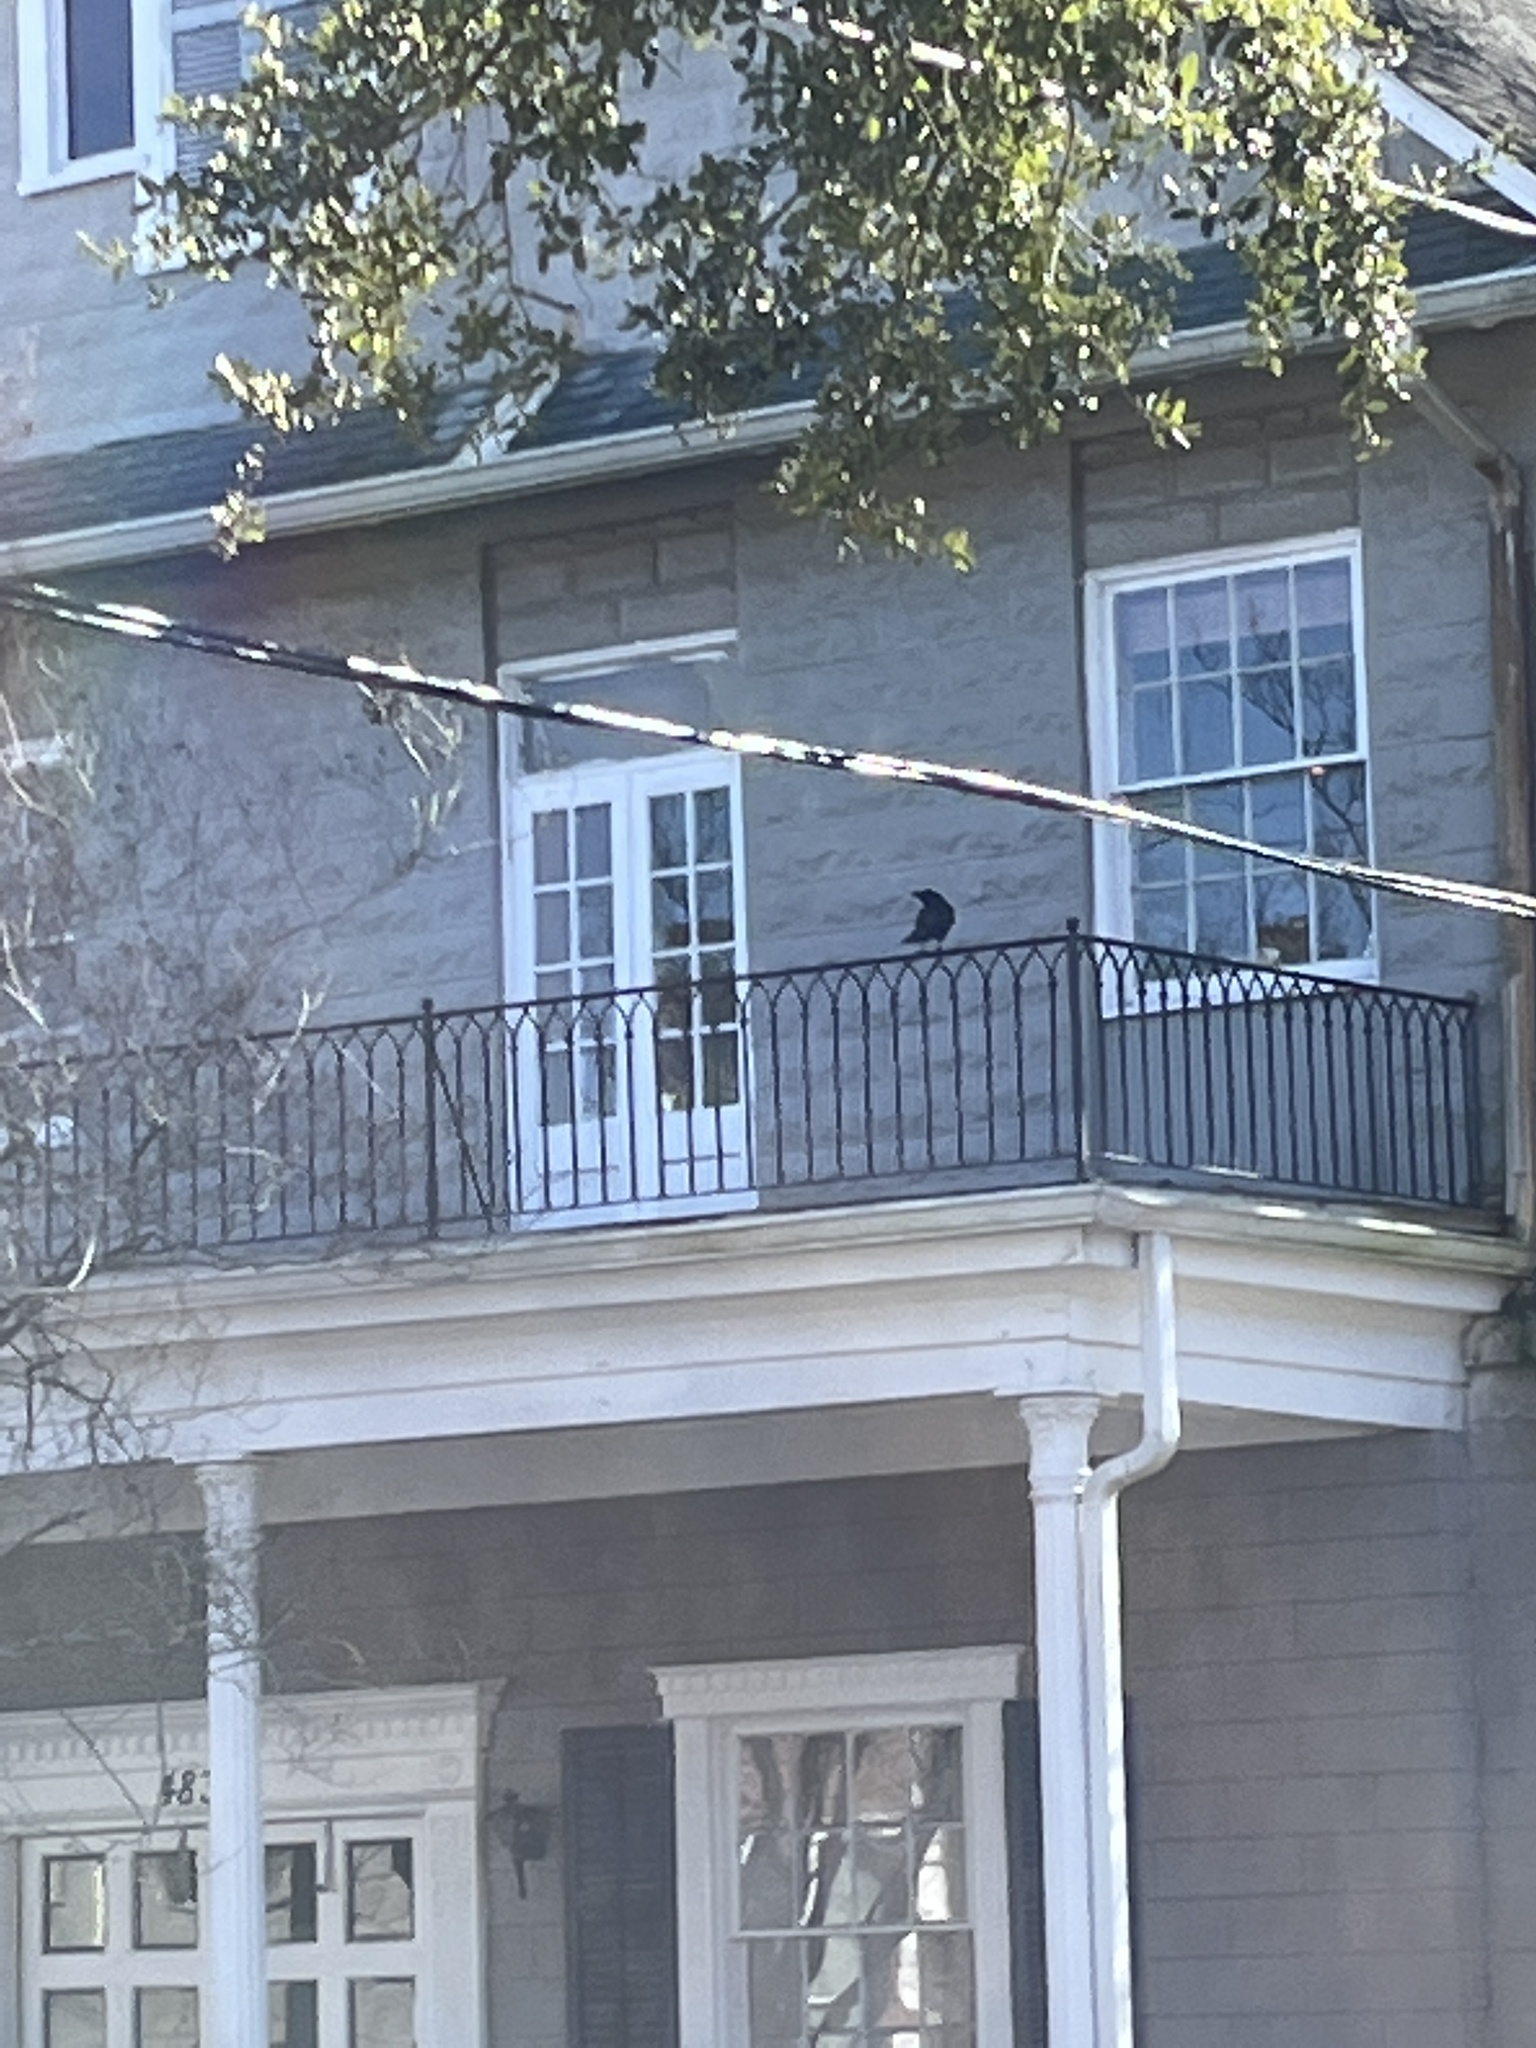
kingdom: Animalia
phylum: Chordata
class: Aves
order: Passeriformes
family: Corvidae
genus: Corvus
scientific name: Corvus brachyrhynchos
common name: American crow
